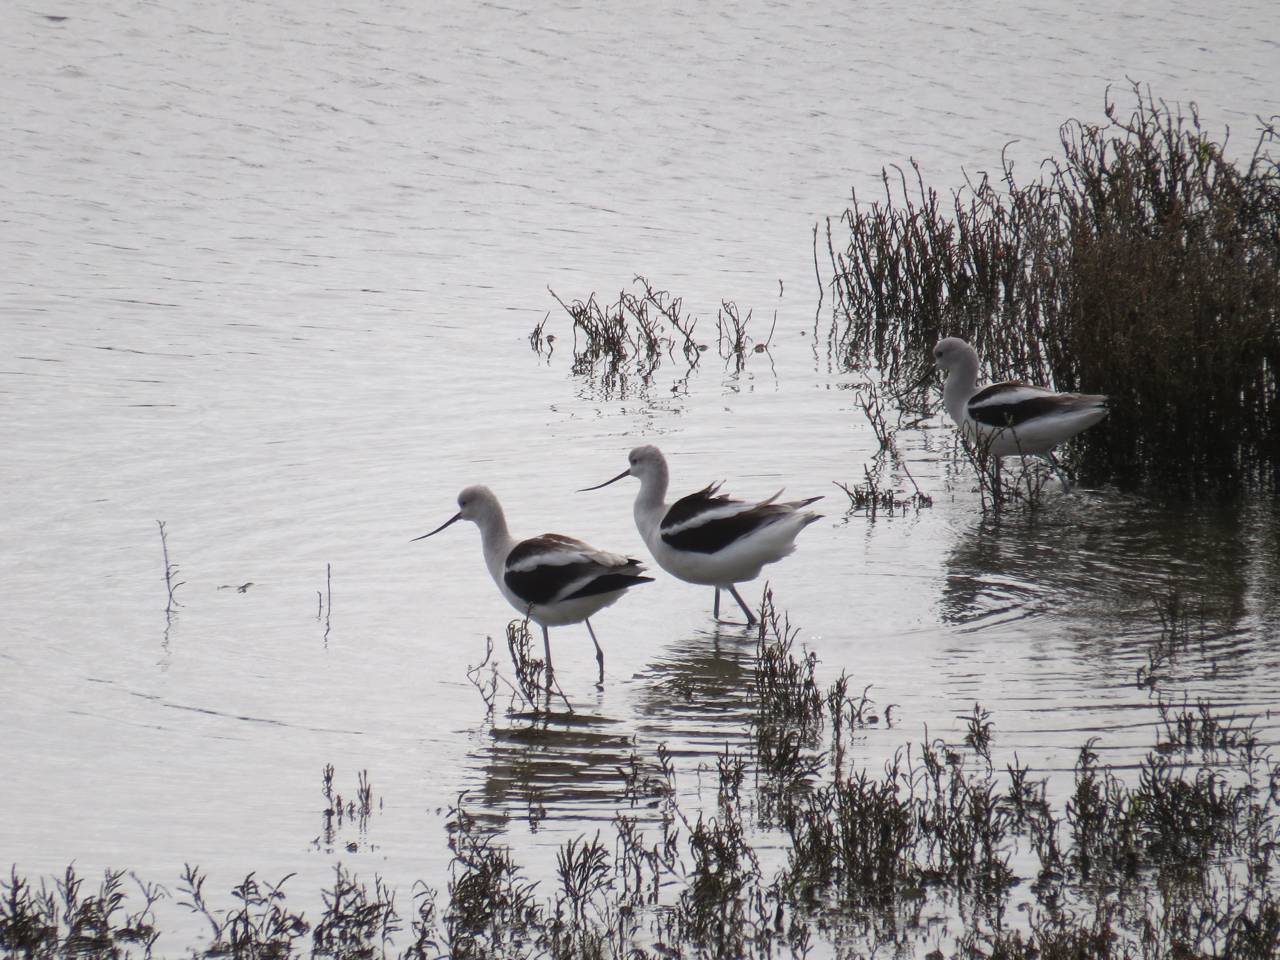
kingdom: Animalia
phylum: Chordata
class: Aves
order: Charadriiformes
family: Recurvirostridae
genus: Recurvirostra
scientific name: Recurvirostra americana
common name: American avocet
